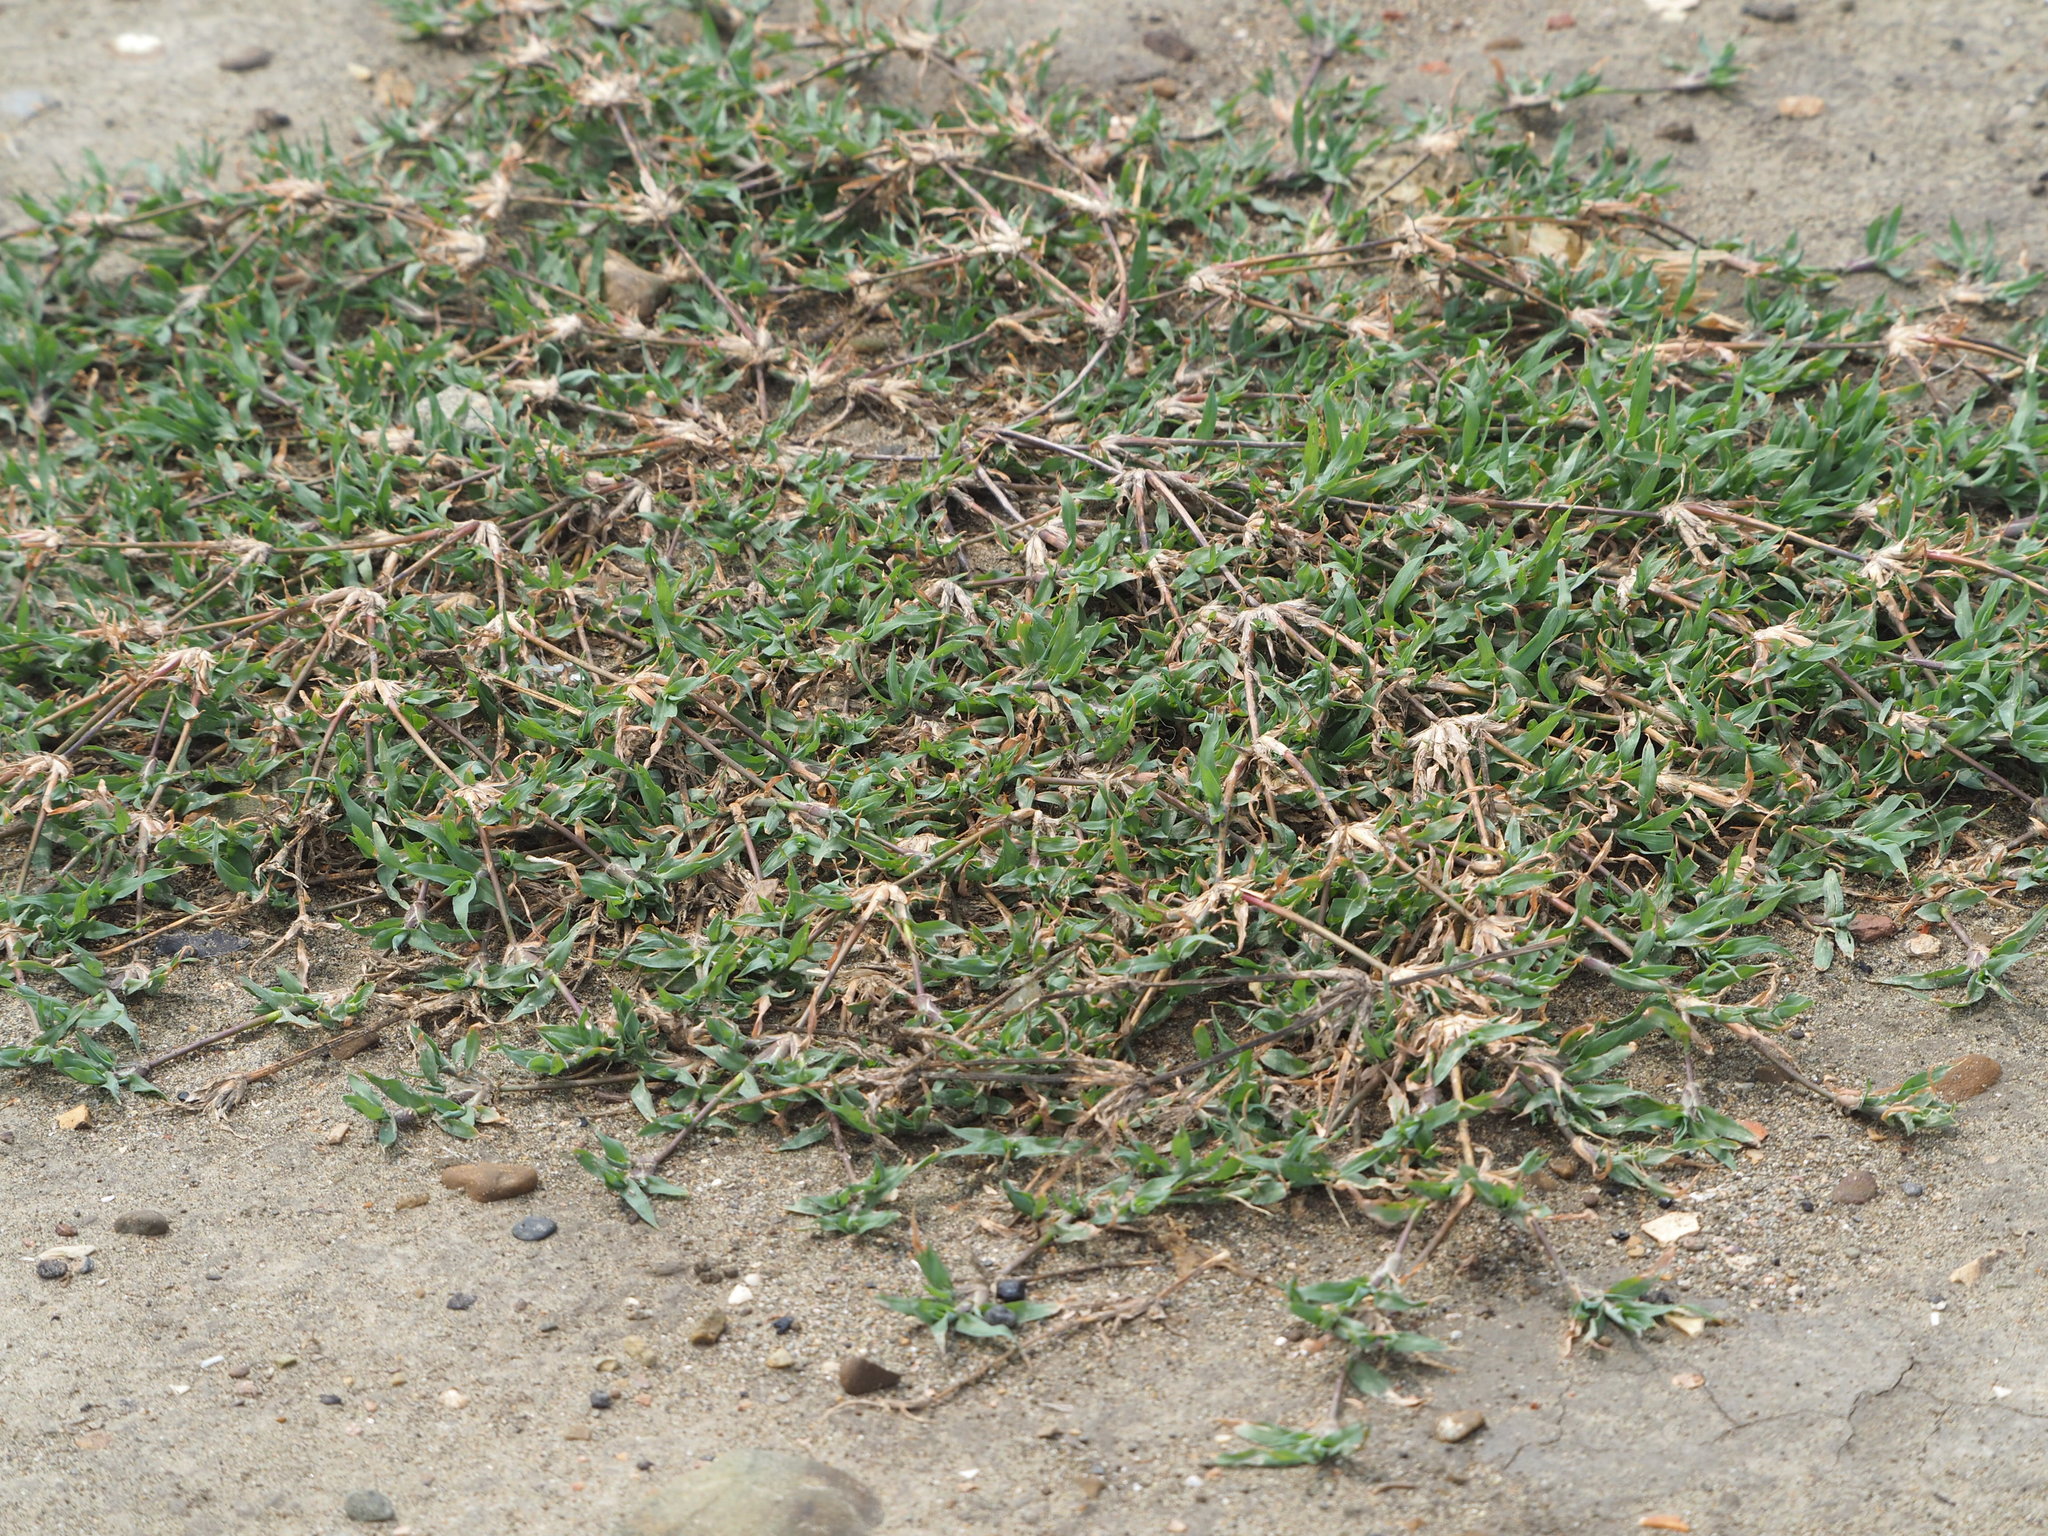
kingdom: Plantae
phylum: Tracheophyta
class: Liliopsida
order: Poales
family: Poaceae
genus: Dactyloctenium
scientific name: Dactyloctenium aegyptium
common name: Egyptian grass
